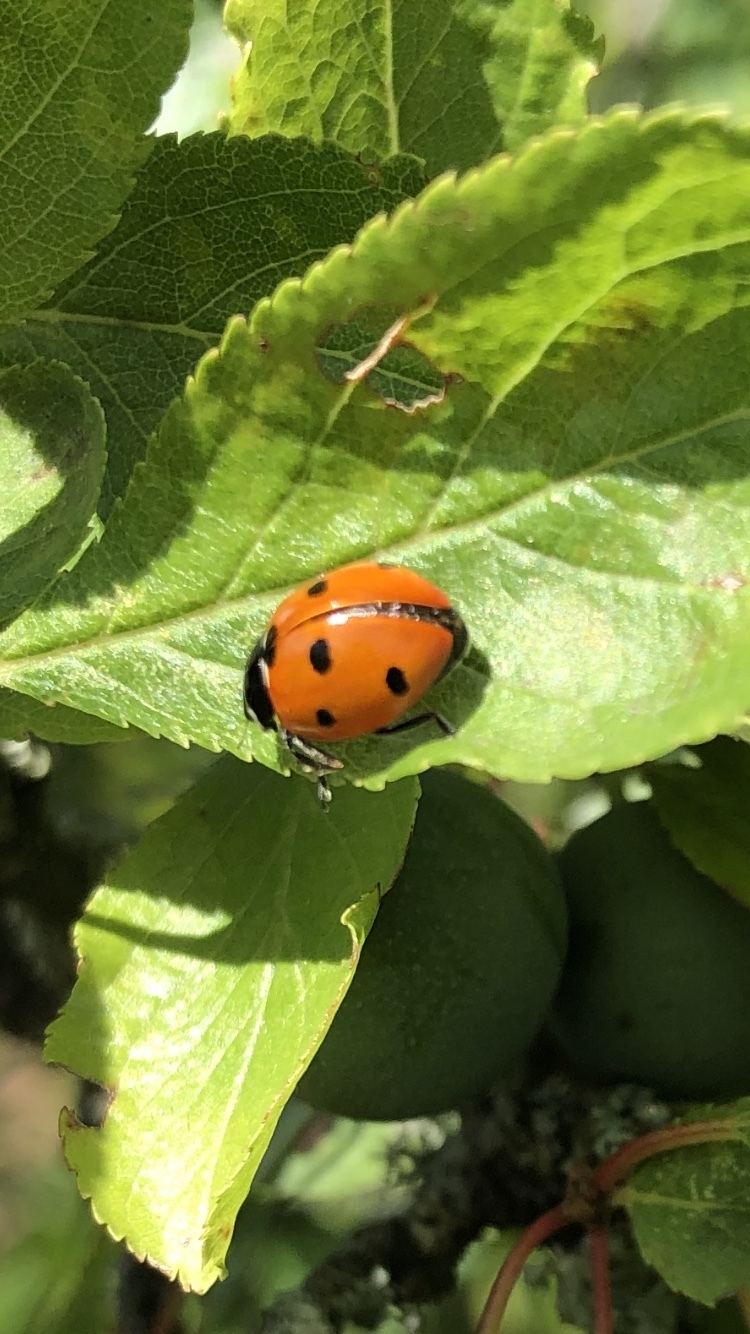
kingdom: Animalia
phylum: Arthropoda
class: Insecta
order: Coleoptera
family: Coccinellidae
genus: Coccinella
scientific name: Coccinella septempunctata
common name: Sevenspotted lady beetle
